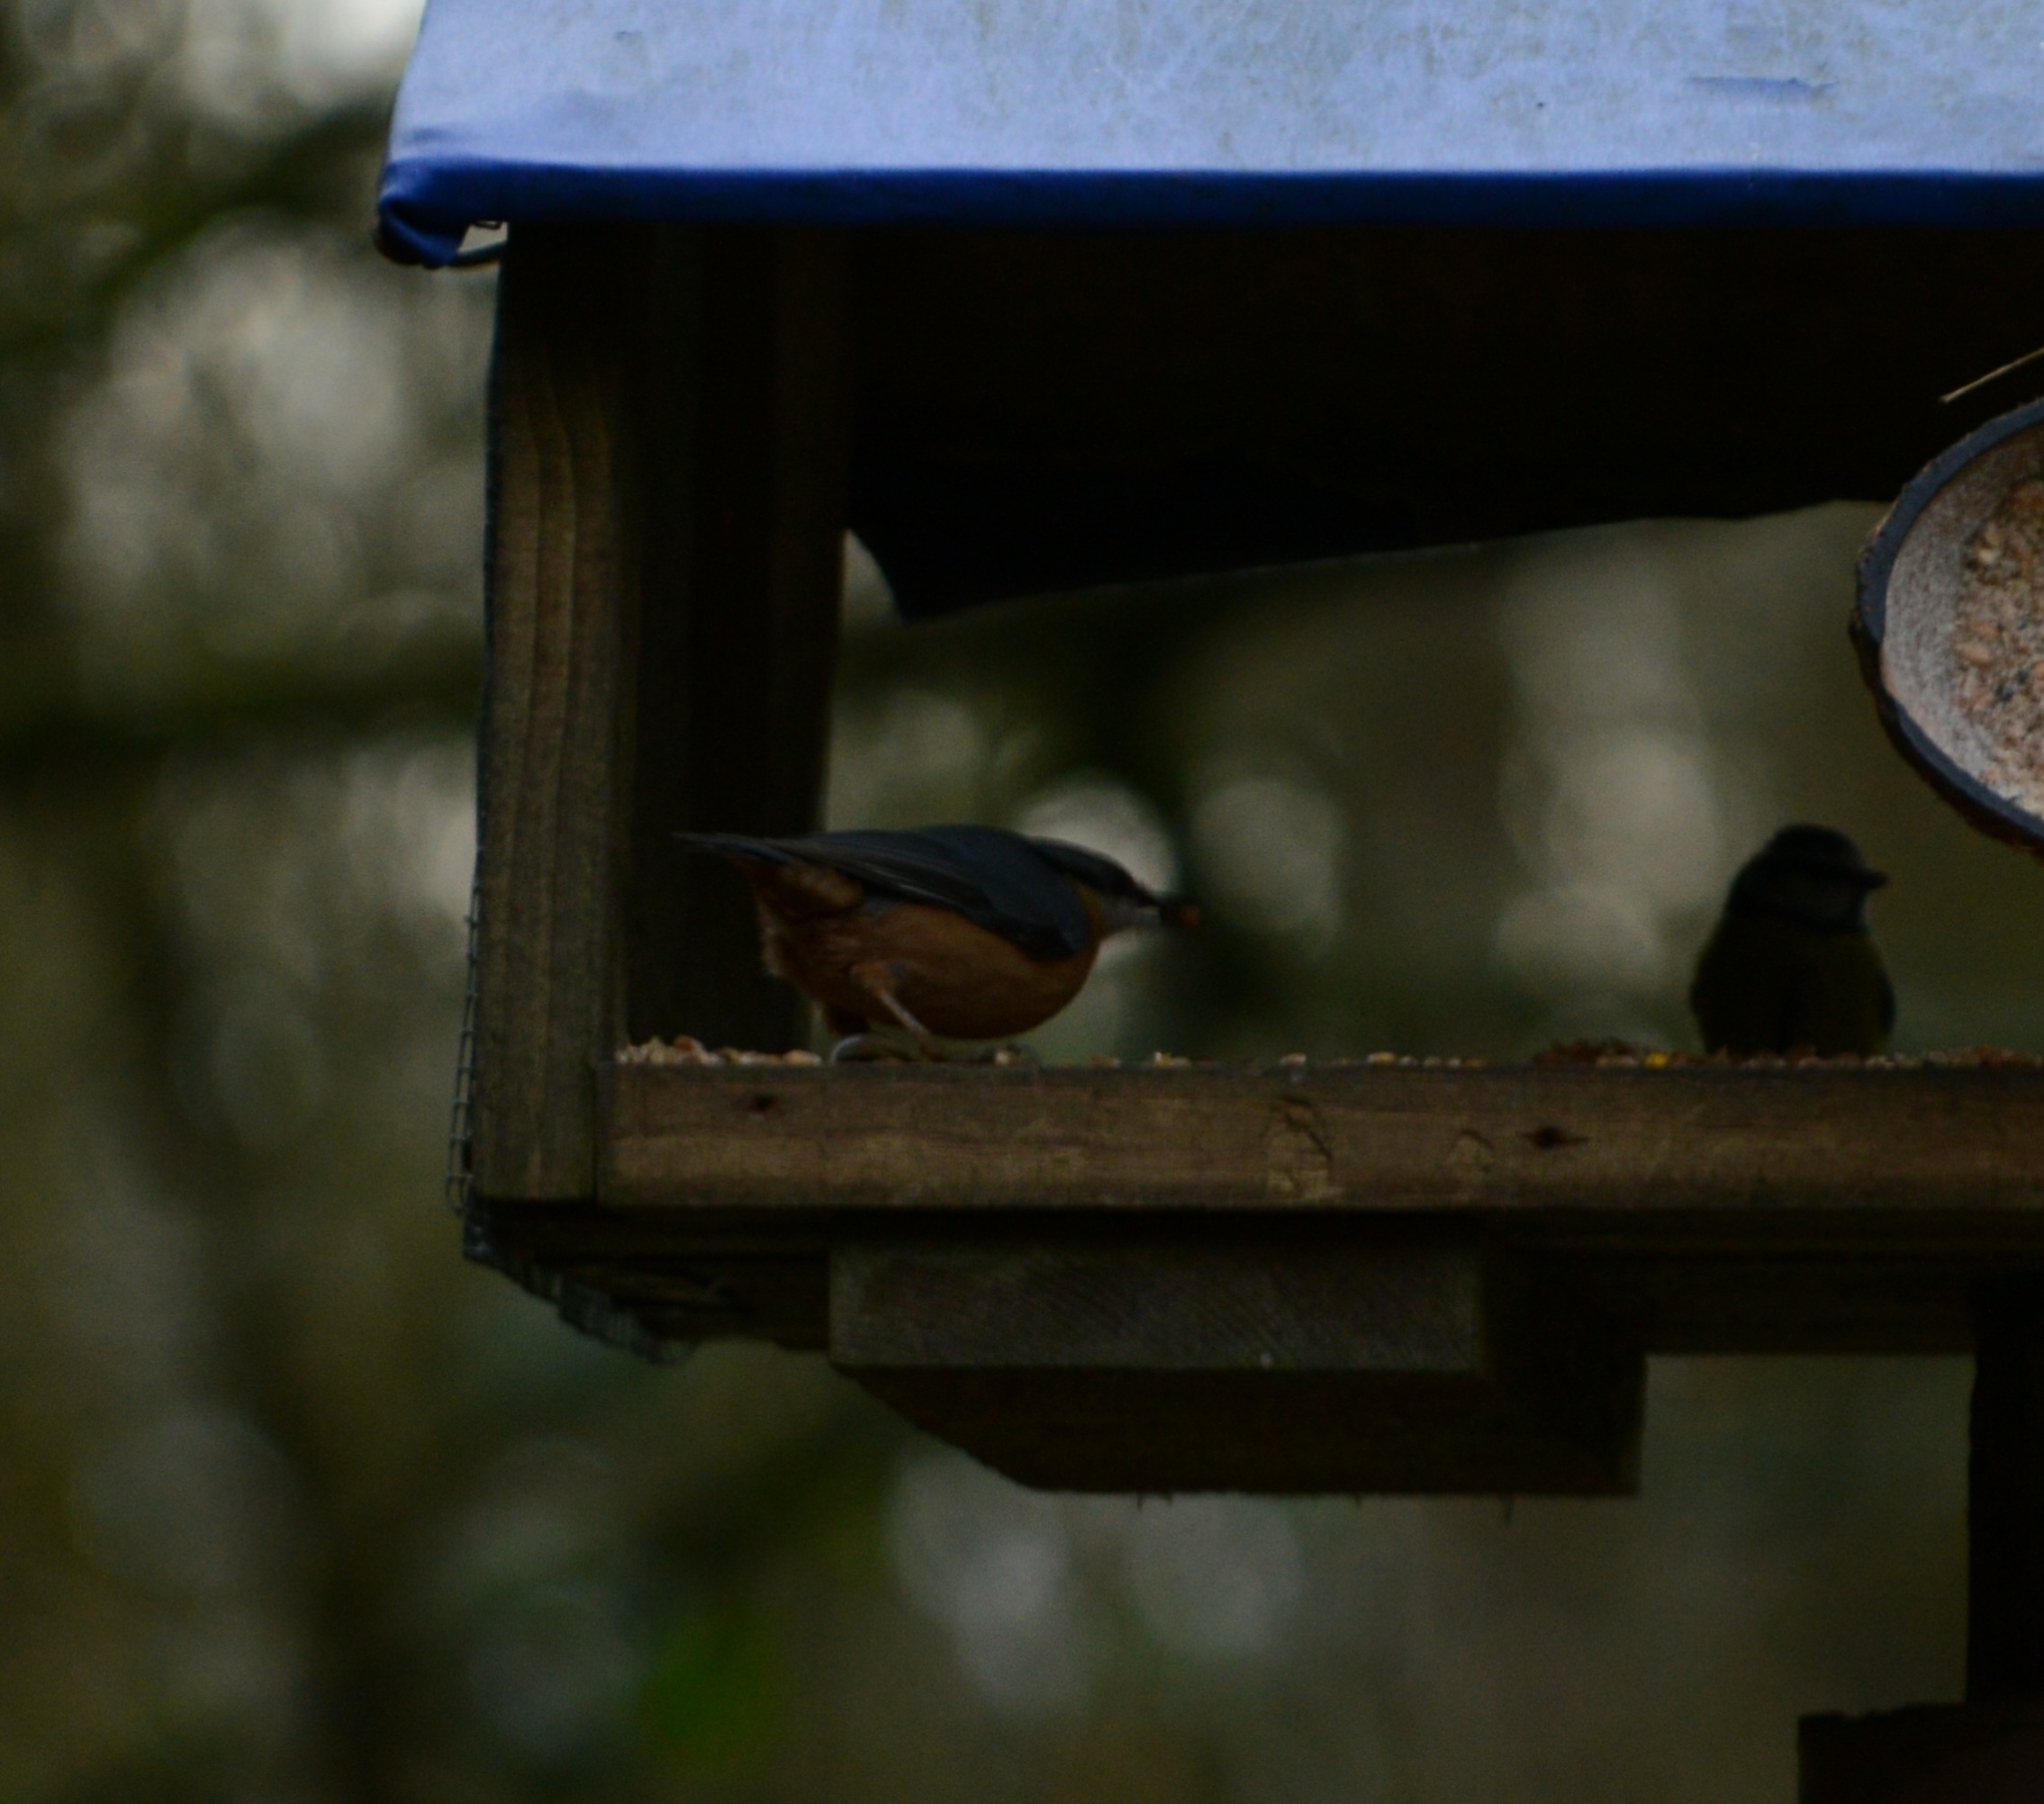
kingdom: Animalia
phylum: Chordata
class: Aves
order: Passeriformes
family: Sittidae
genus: Sitta
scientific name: Sitta europaea
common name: Eurasian nuthatch
